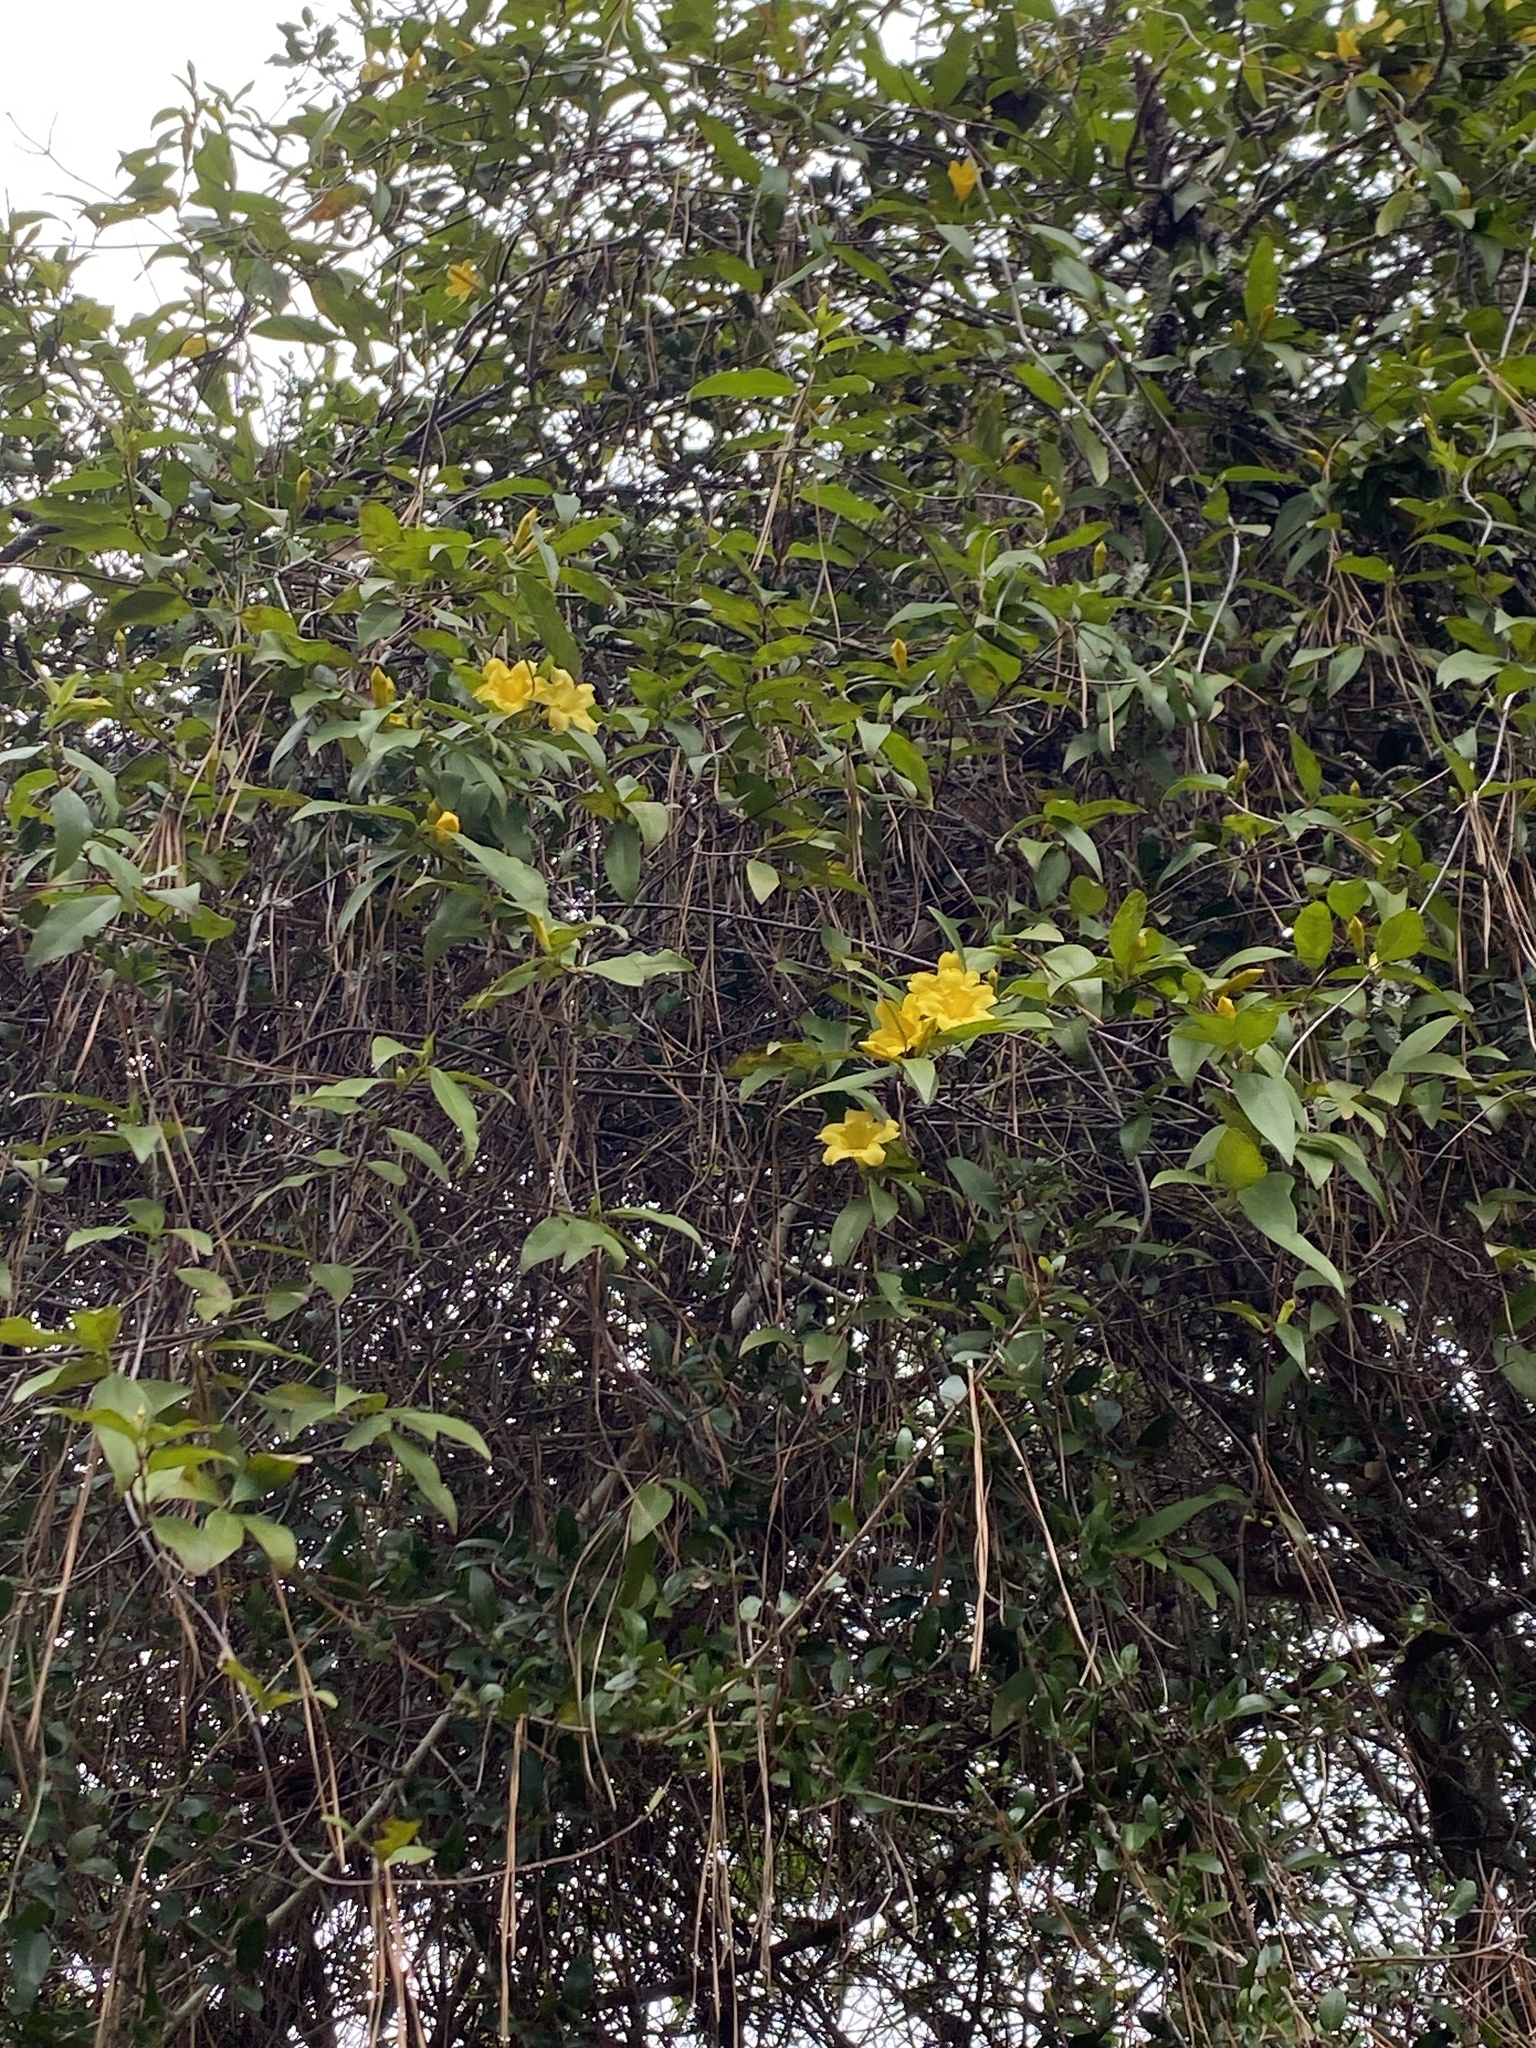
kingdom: Plantae
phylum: Tracheophyta
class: Magnoliopsida
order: Gentianales
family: Gelsemiaceae
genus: Gelsemium
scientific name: Gelsemium sempervirens
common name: Carolina-jasmine
